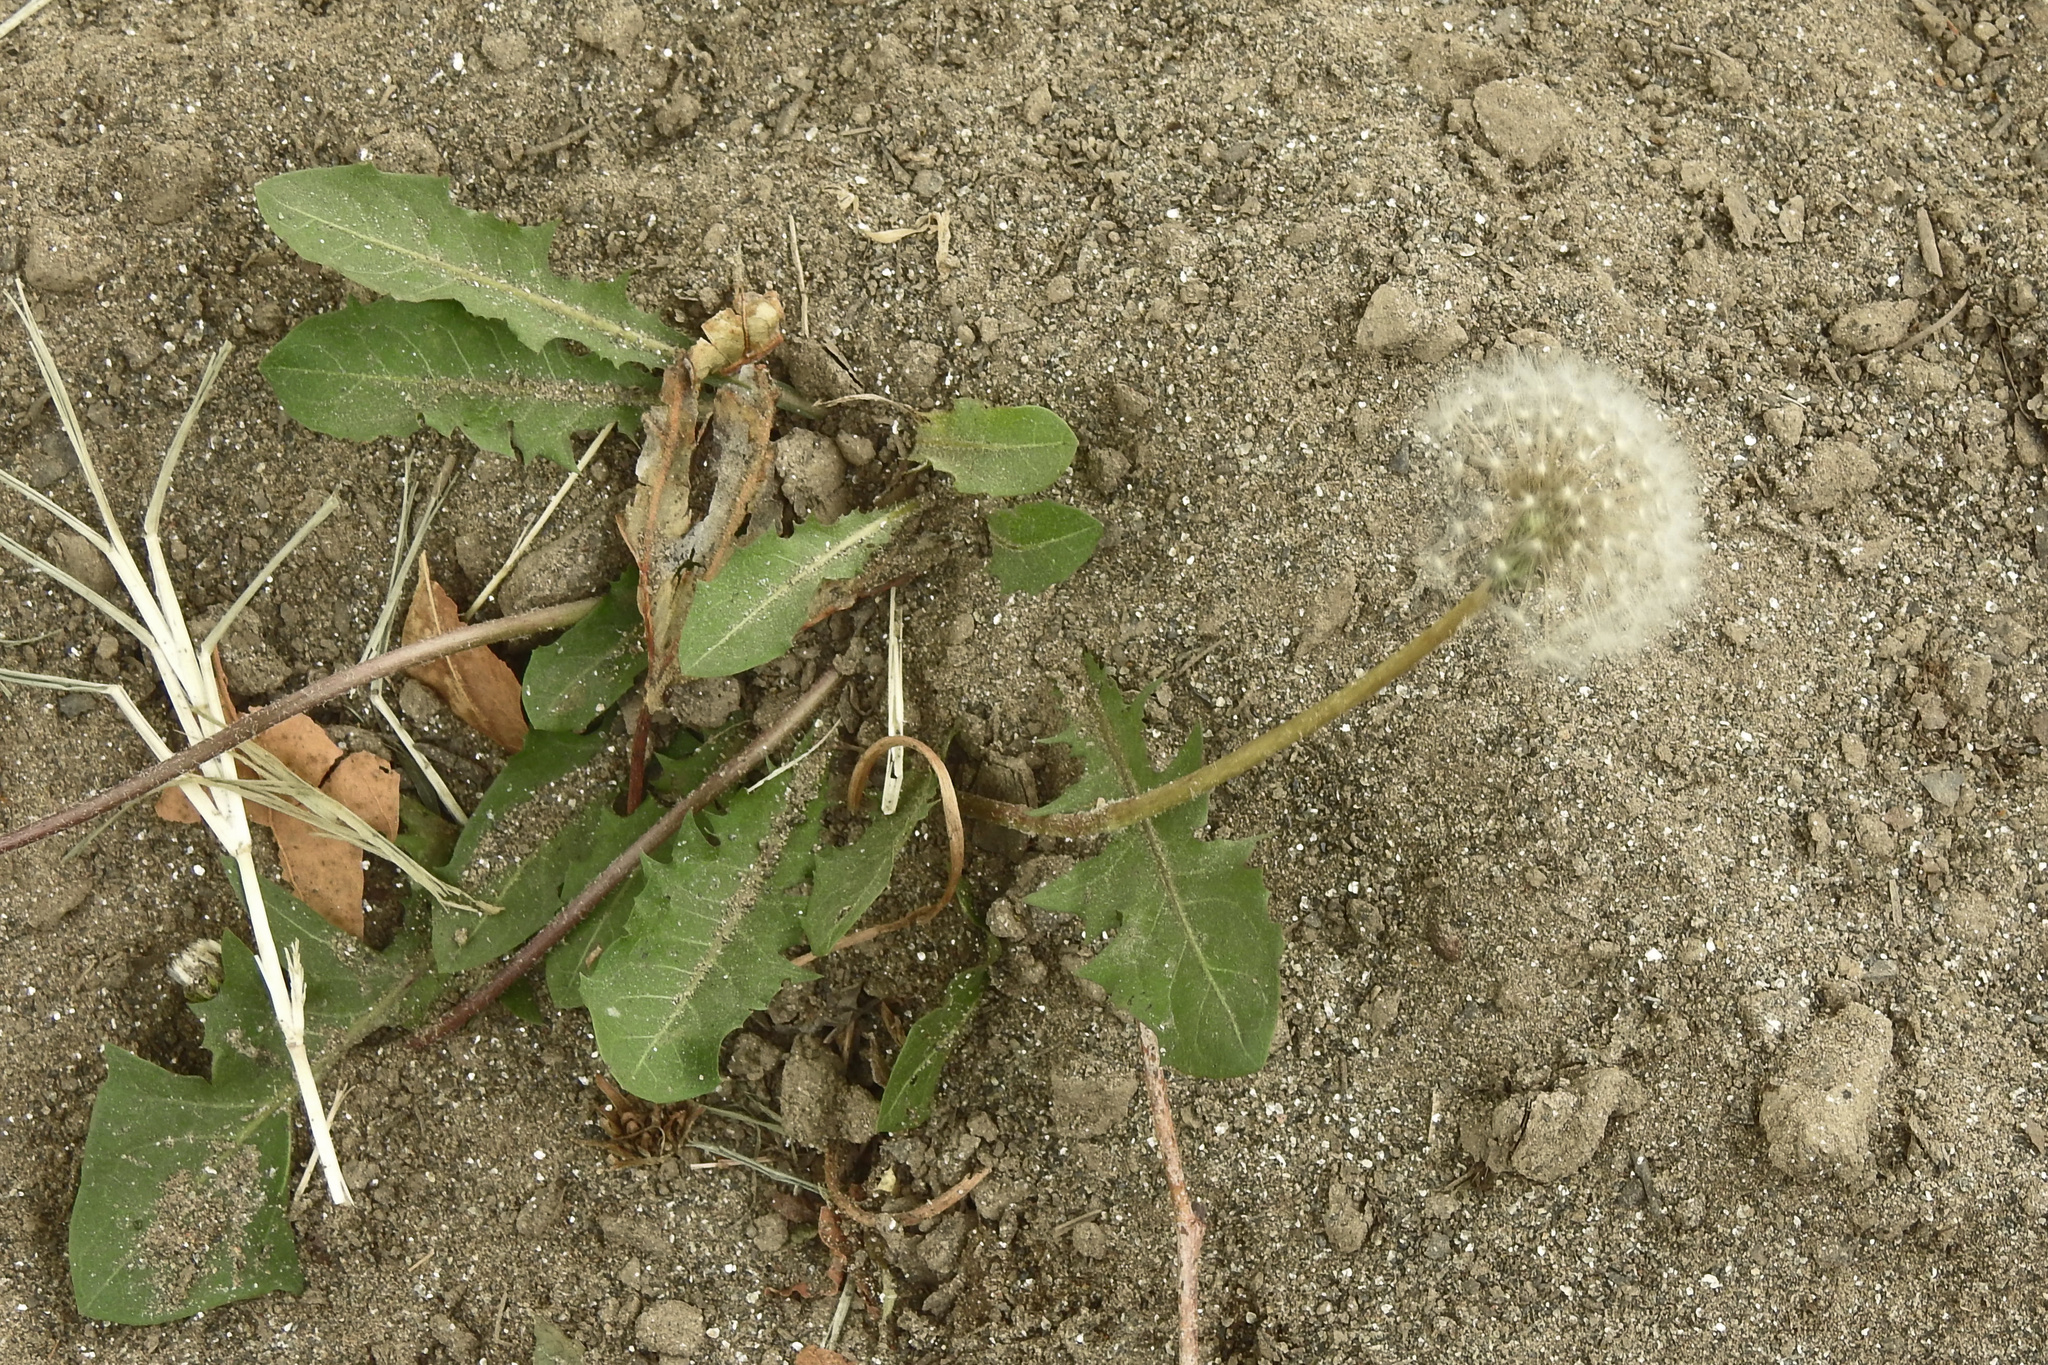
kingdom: Plantae
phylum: Tracheophyta
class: Magnoliopsida
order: Asterales
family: Asteraceae
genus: Taraxacum
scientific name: Taraxacum officinale
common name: Common dandelion
